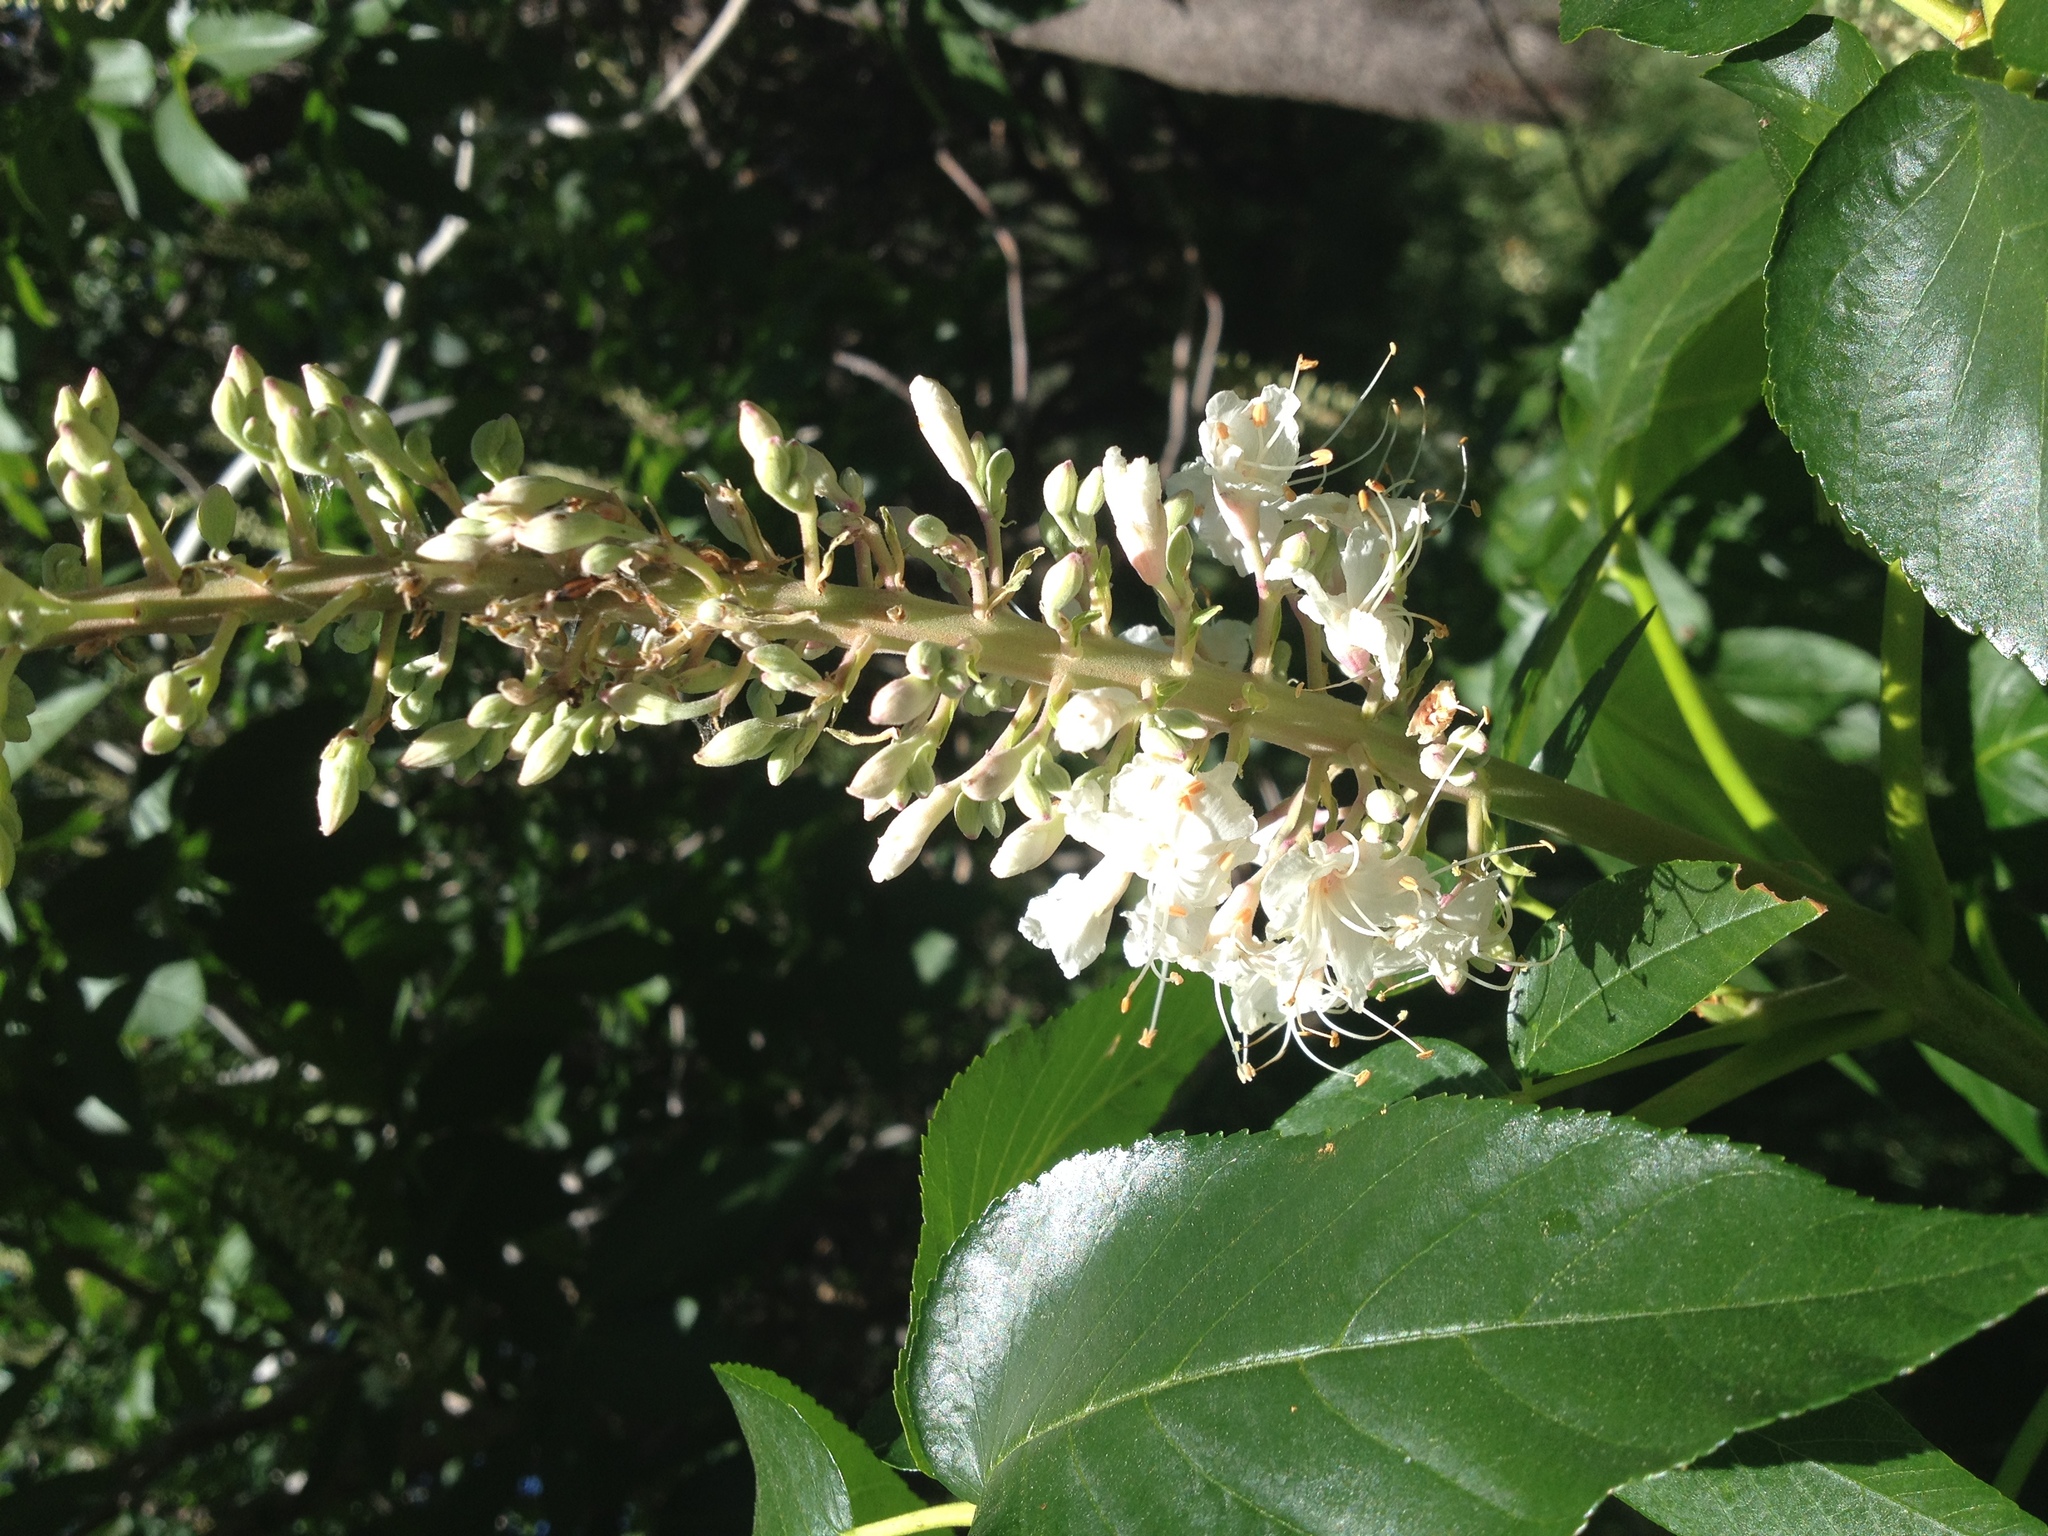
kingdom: Plantae
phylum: Tracheophyta
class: Magnoliopsida
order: Sapindales
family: Sapindaceae
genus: Aesculus
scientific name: Aesculus californica
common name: California buckeye
